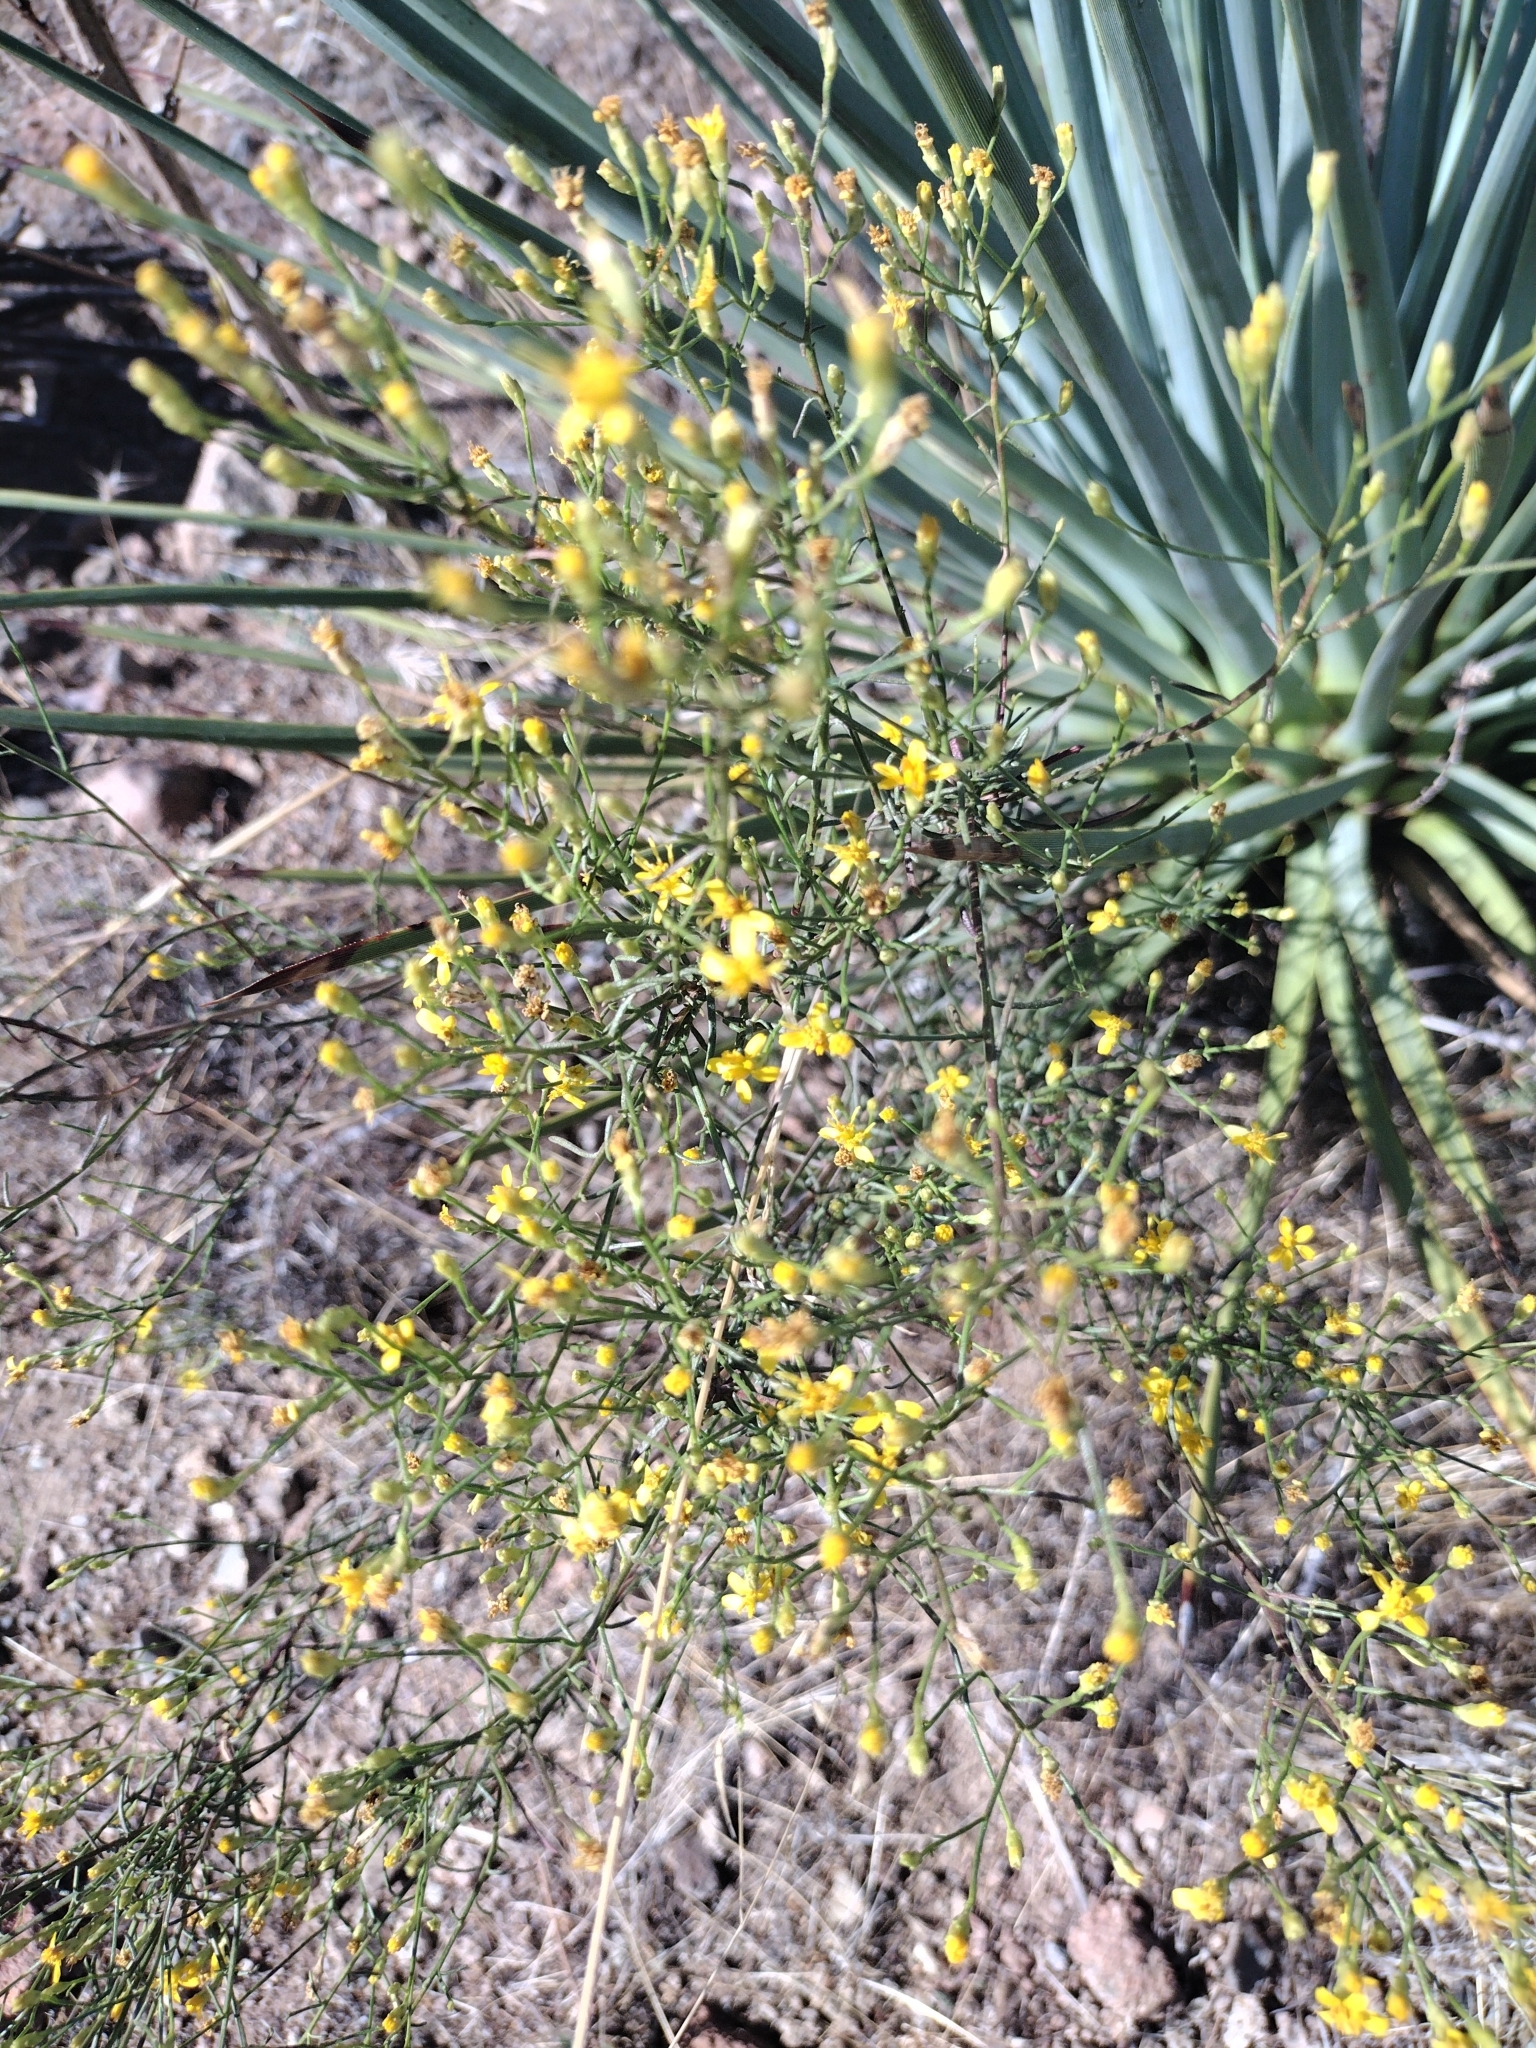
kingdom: Plantae
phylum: Tracheophyta
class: Magnoliopsida
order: Asterales
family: Asteraceae
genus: Gutierrezia
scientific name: Gutierrezia californica
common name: California matchweed
